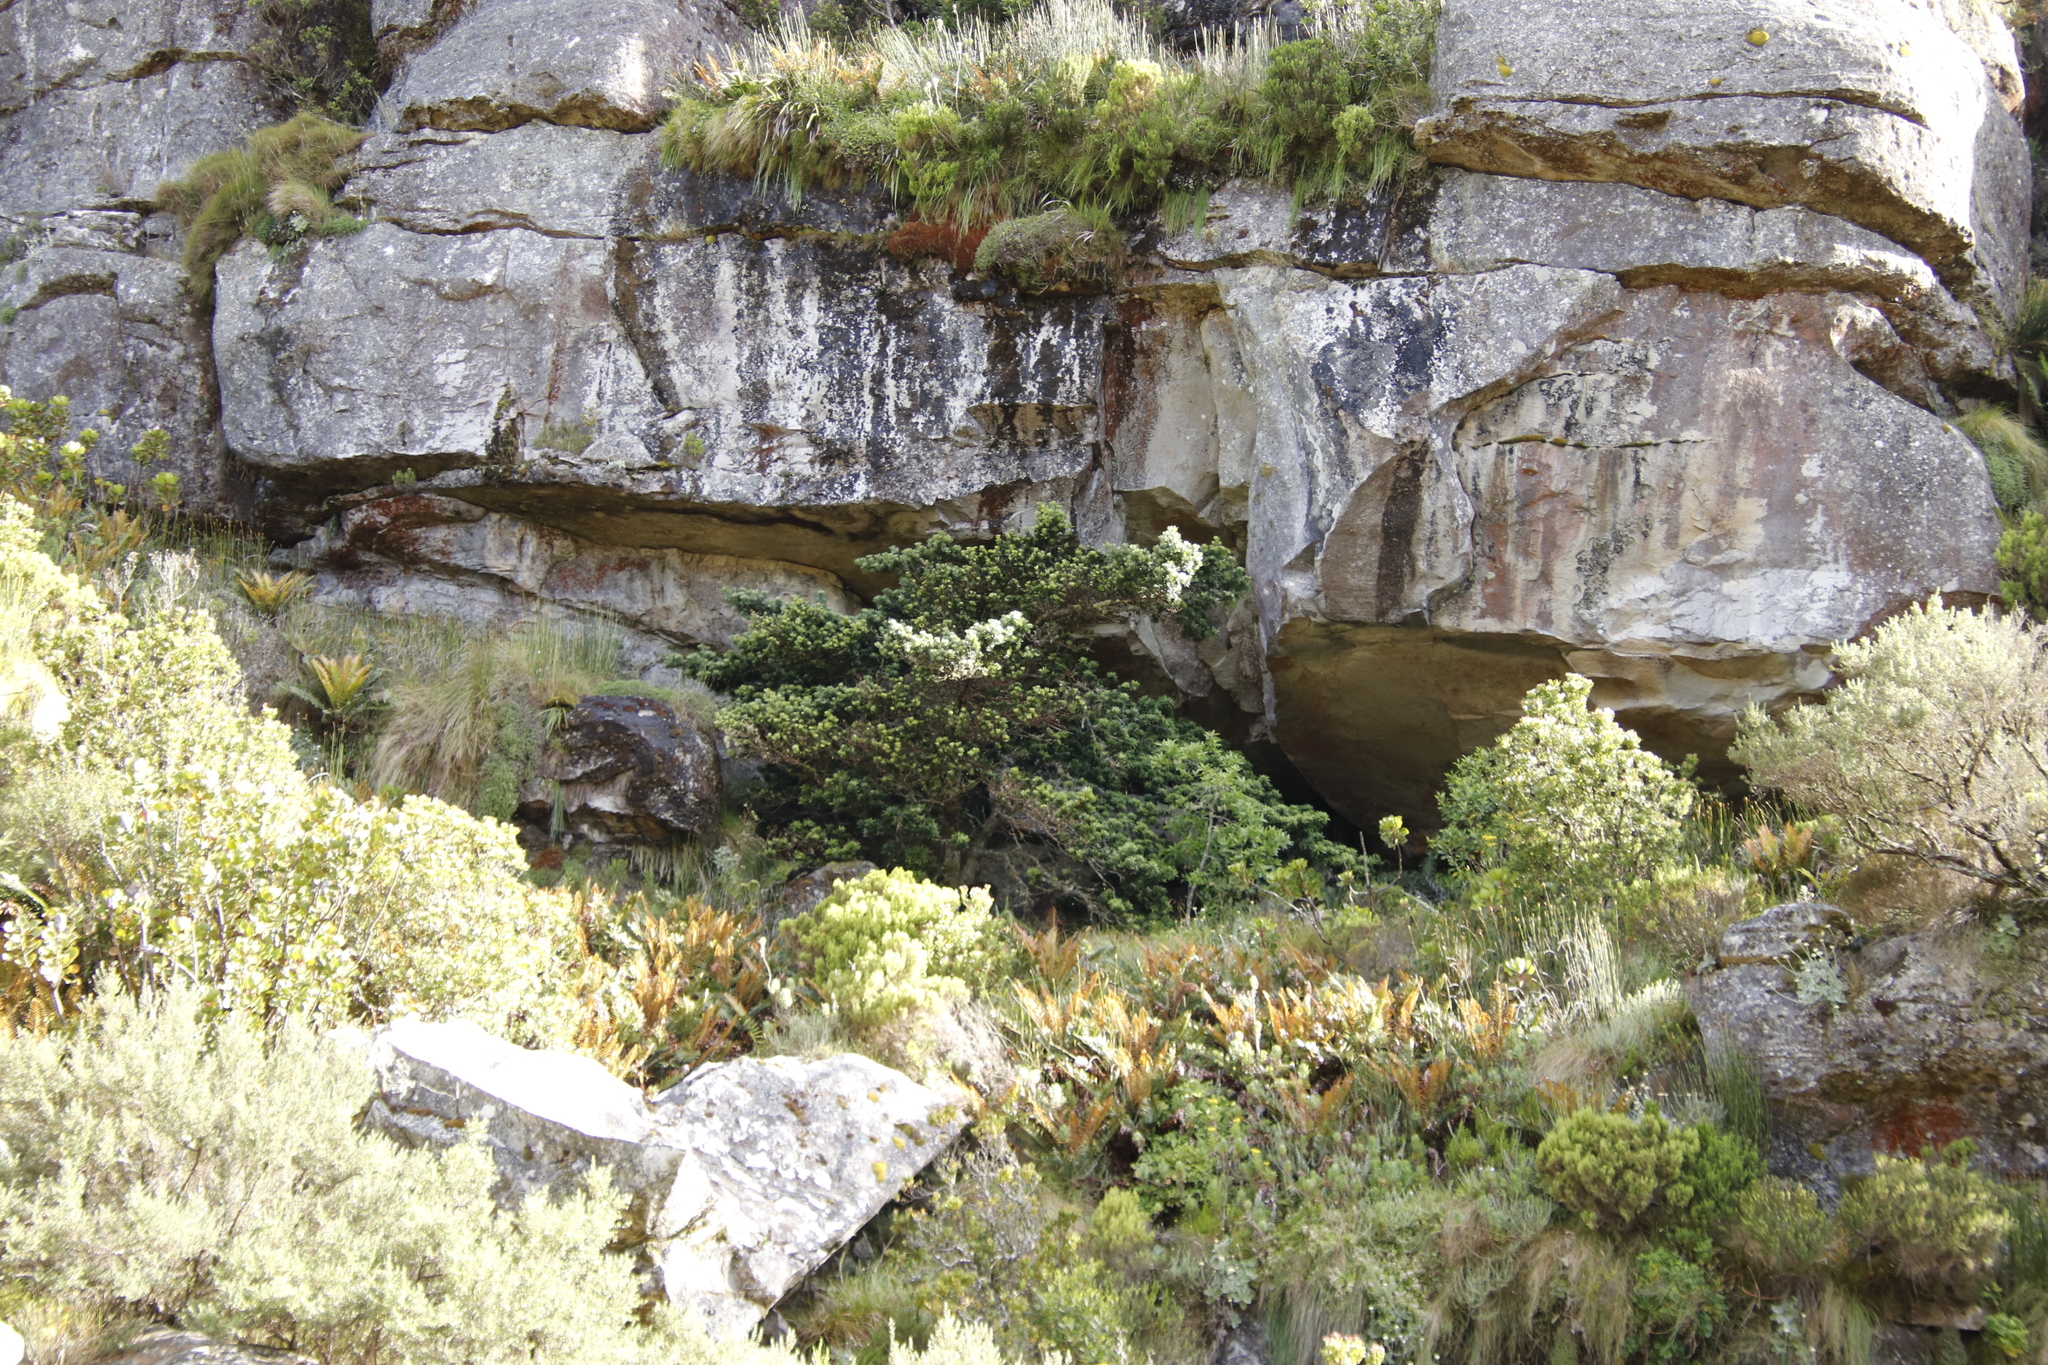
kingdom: Plantae
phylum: Tracheophyta
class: Pinopsida
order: Pinales
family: Podocarpaceae
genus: Podocarpus
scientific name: Podocarpus latifolius
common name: True yellowwood
